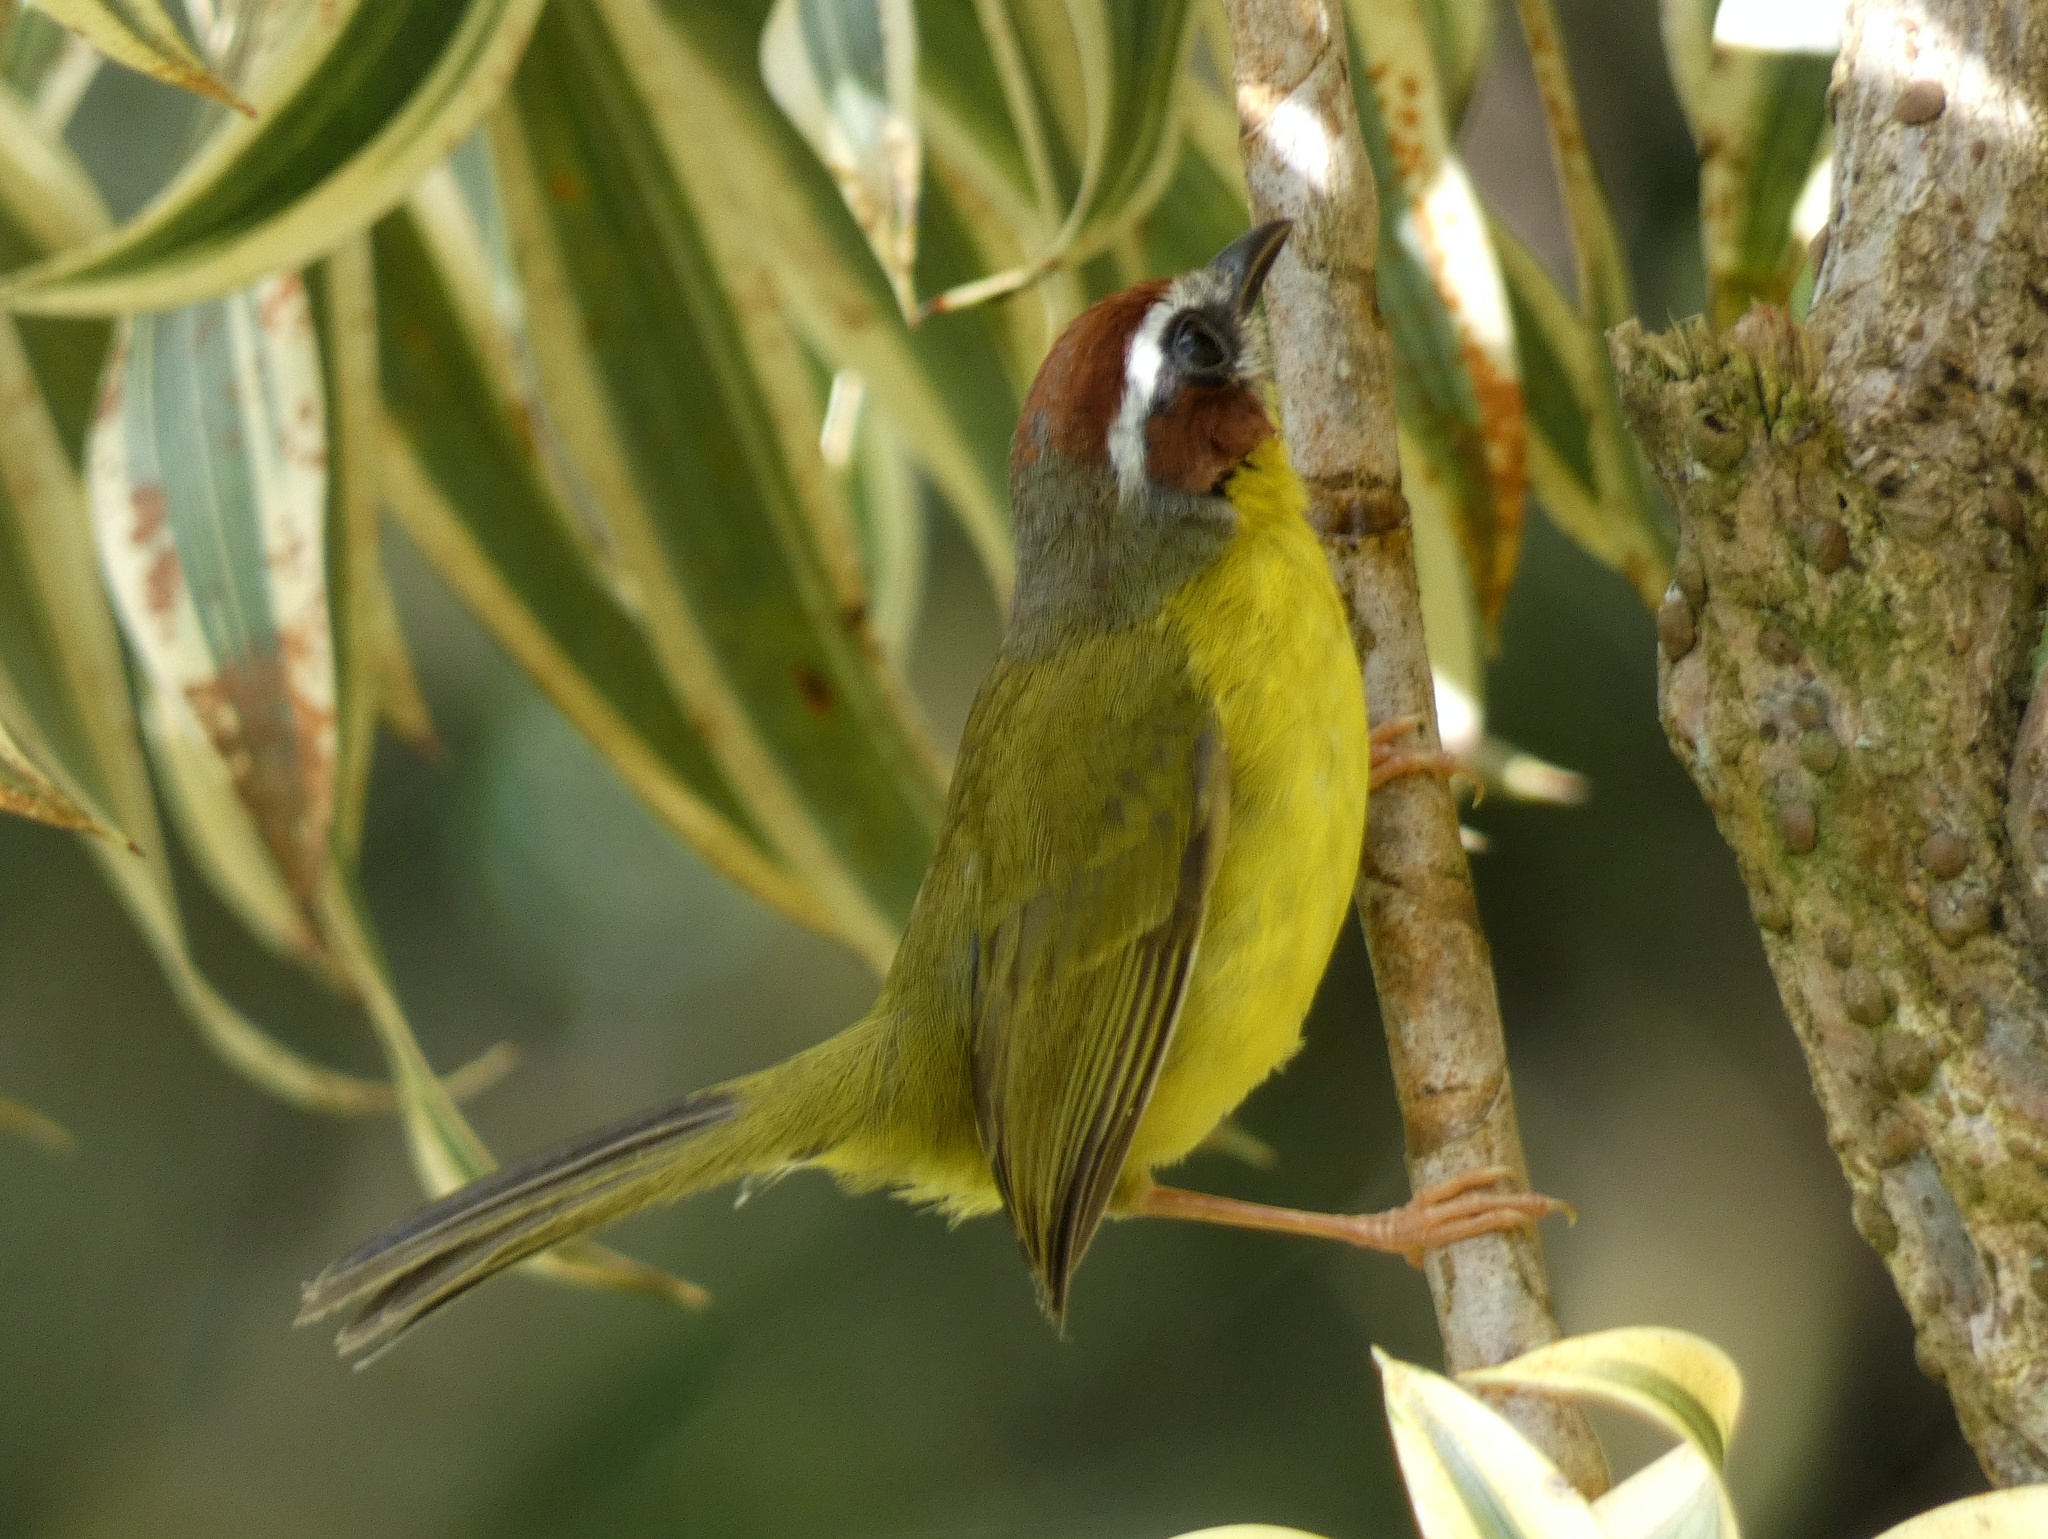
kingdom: Animalia
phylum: Chordata
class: Aves
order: Passeriformes
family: Parulidae
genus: Basileuterus
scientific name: Basileuterus rufifrons
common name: Rufous-capped warbler
